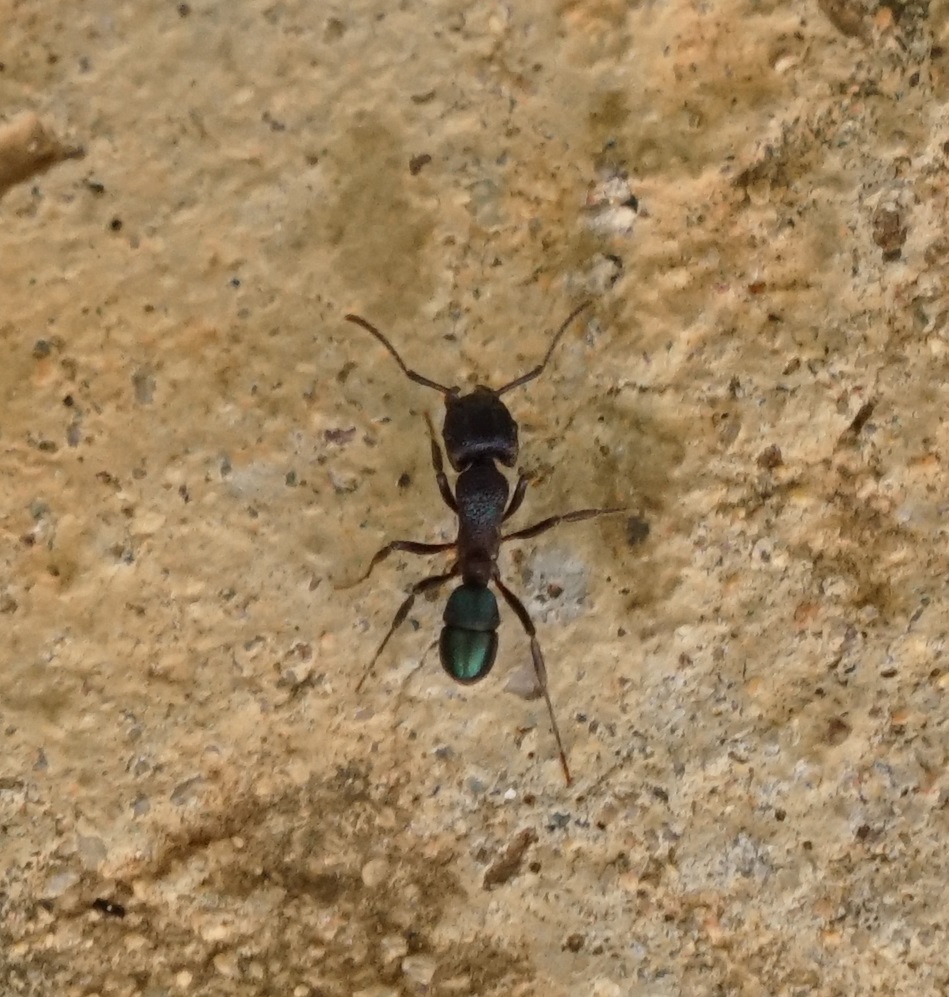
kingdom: Animalia
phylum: Arthropoda
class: Insecta
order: Hymenoptera
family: Formicidae
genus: Rhytidoponera
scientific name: Rhytidoponera metallica
